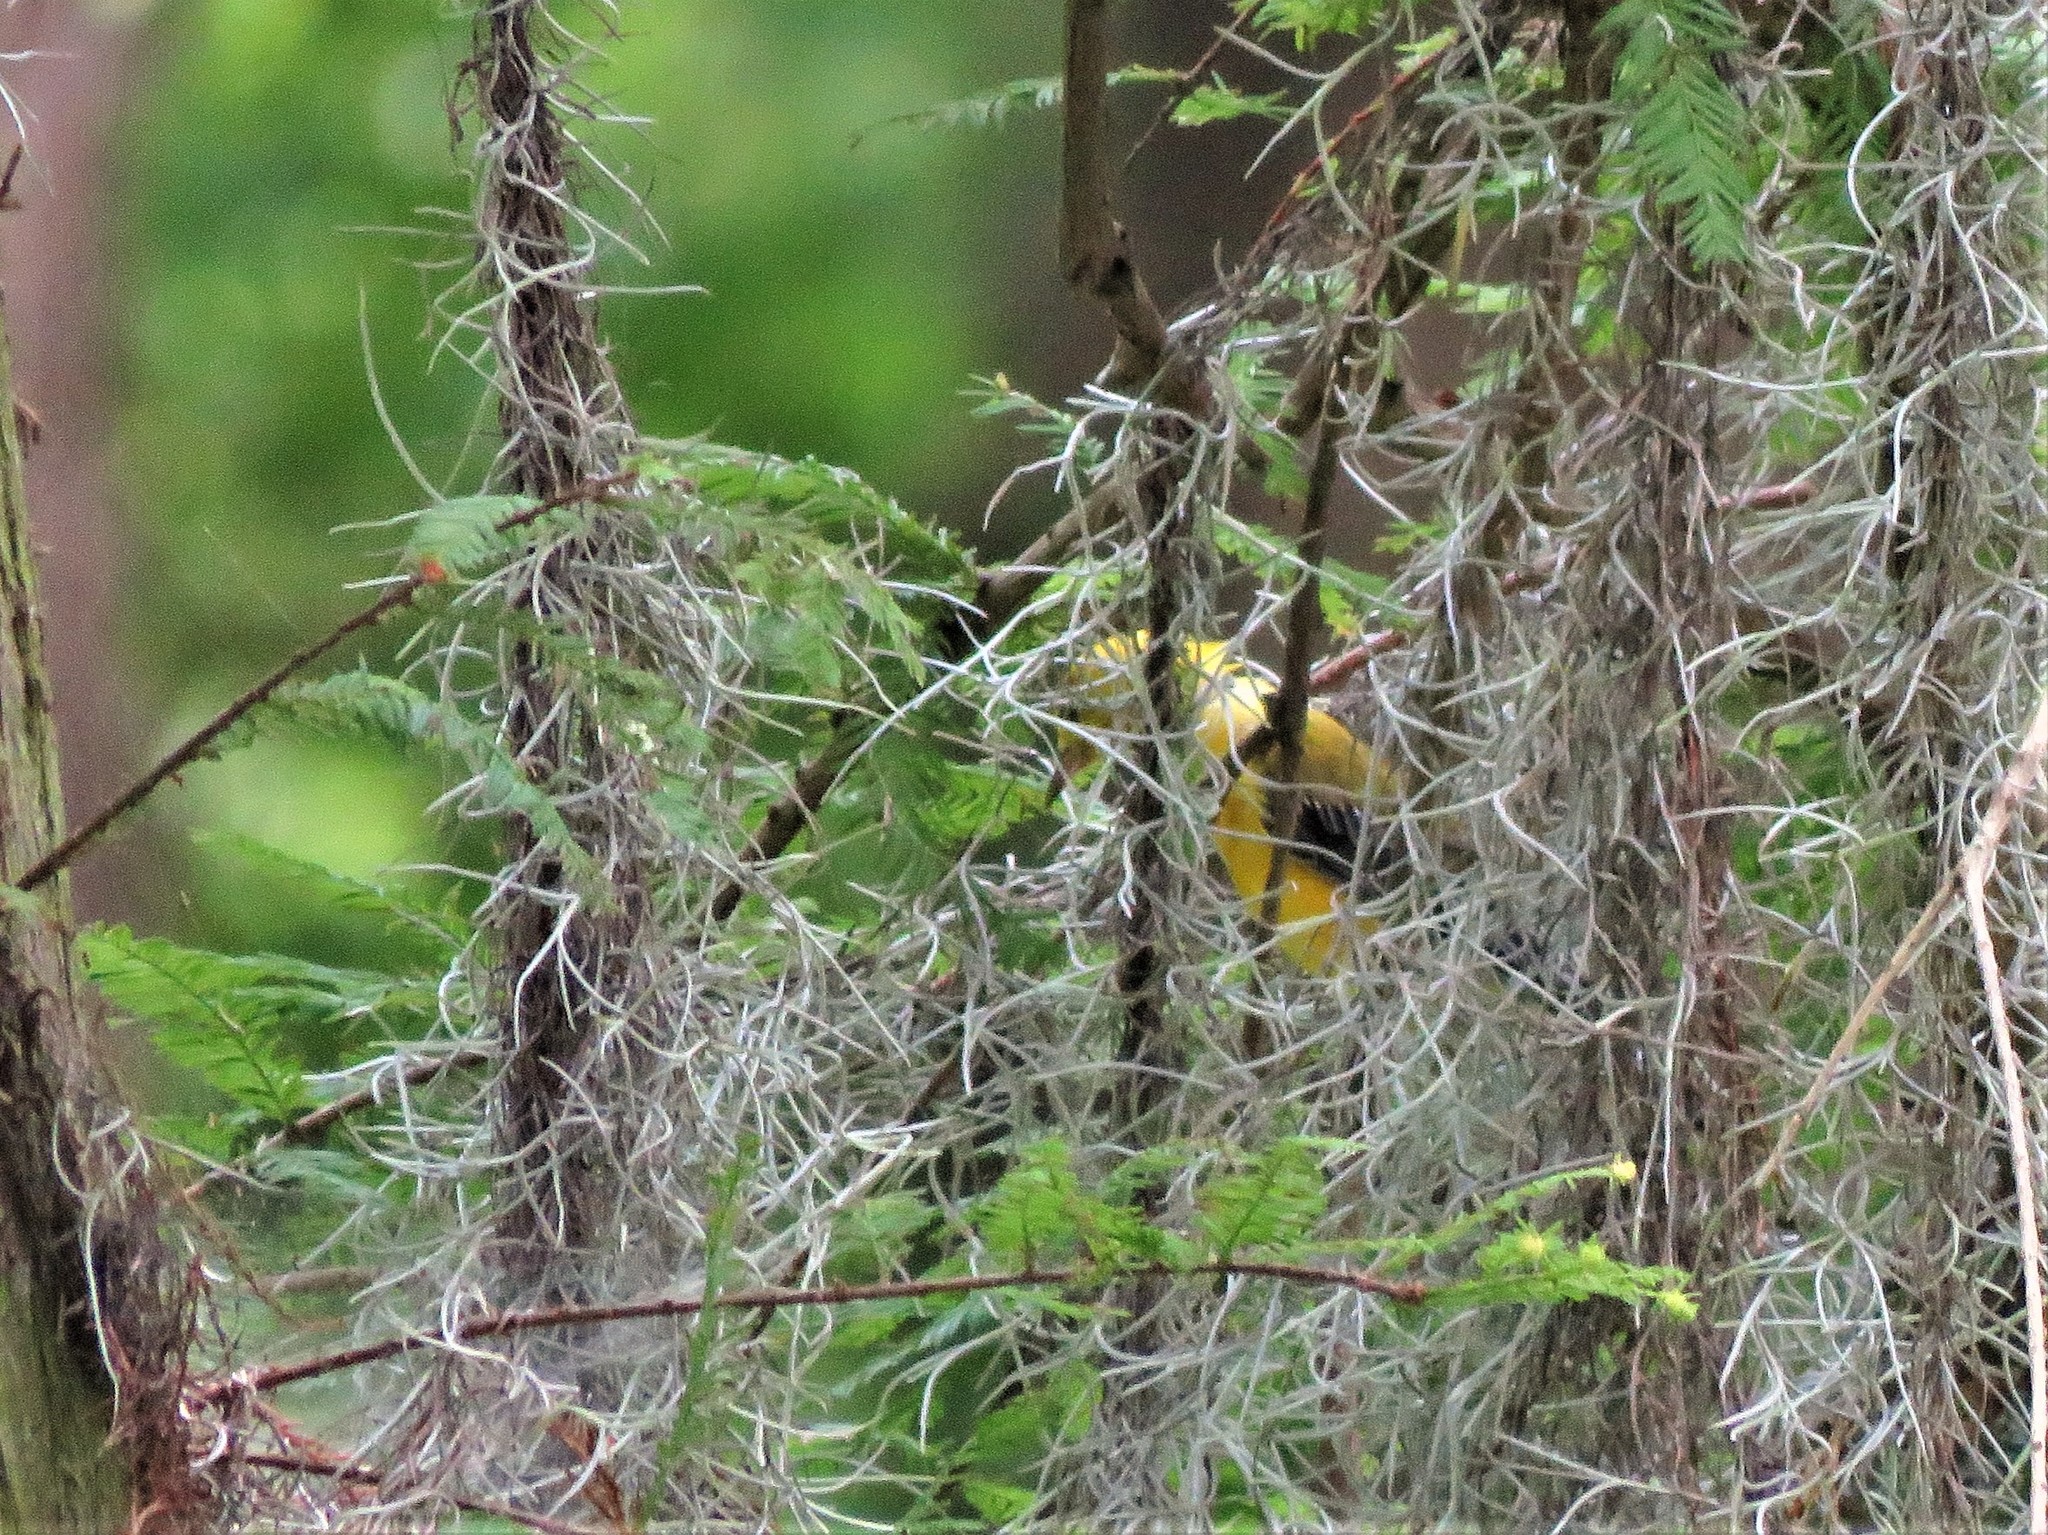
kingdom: Animalia
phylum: Chordata
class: Aves
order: Passeriformes
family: Parulidae
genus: Protonotaria
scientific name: Protonotaria citrea
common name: Prothonotary warbler
